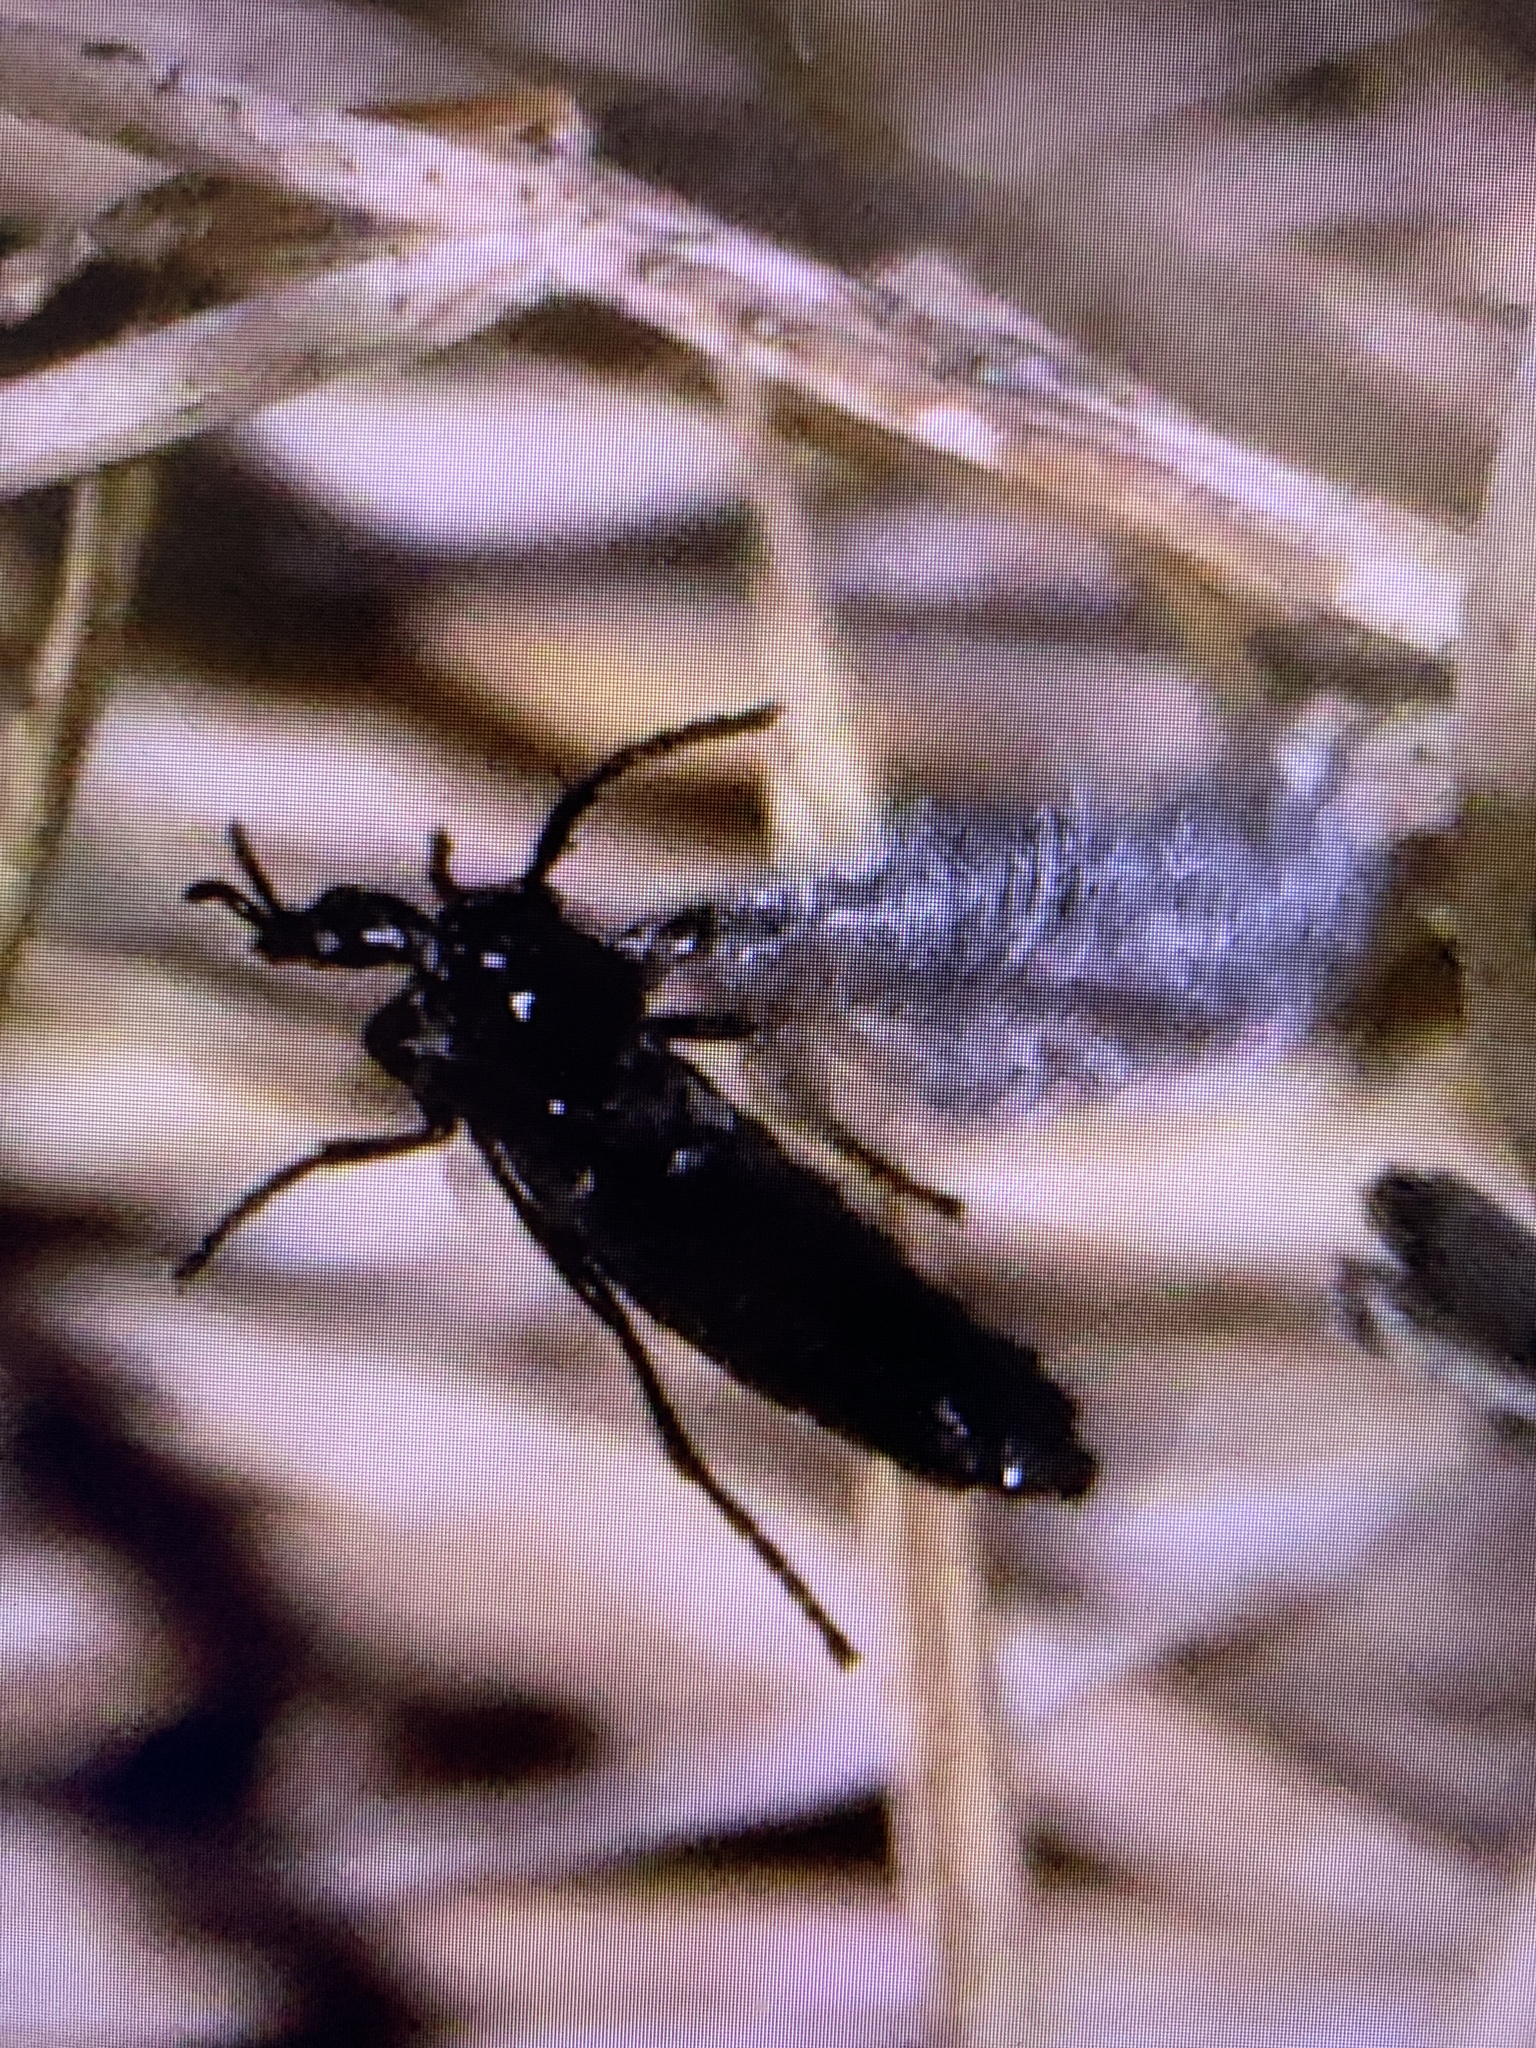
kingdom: Animalia
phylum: Arthropoda
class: Insecta
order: Diptera
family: Bibionidae
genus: Dilophus
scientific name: Dilophus orbatus
